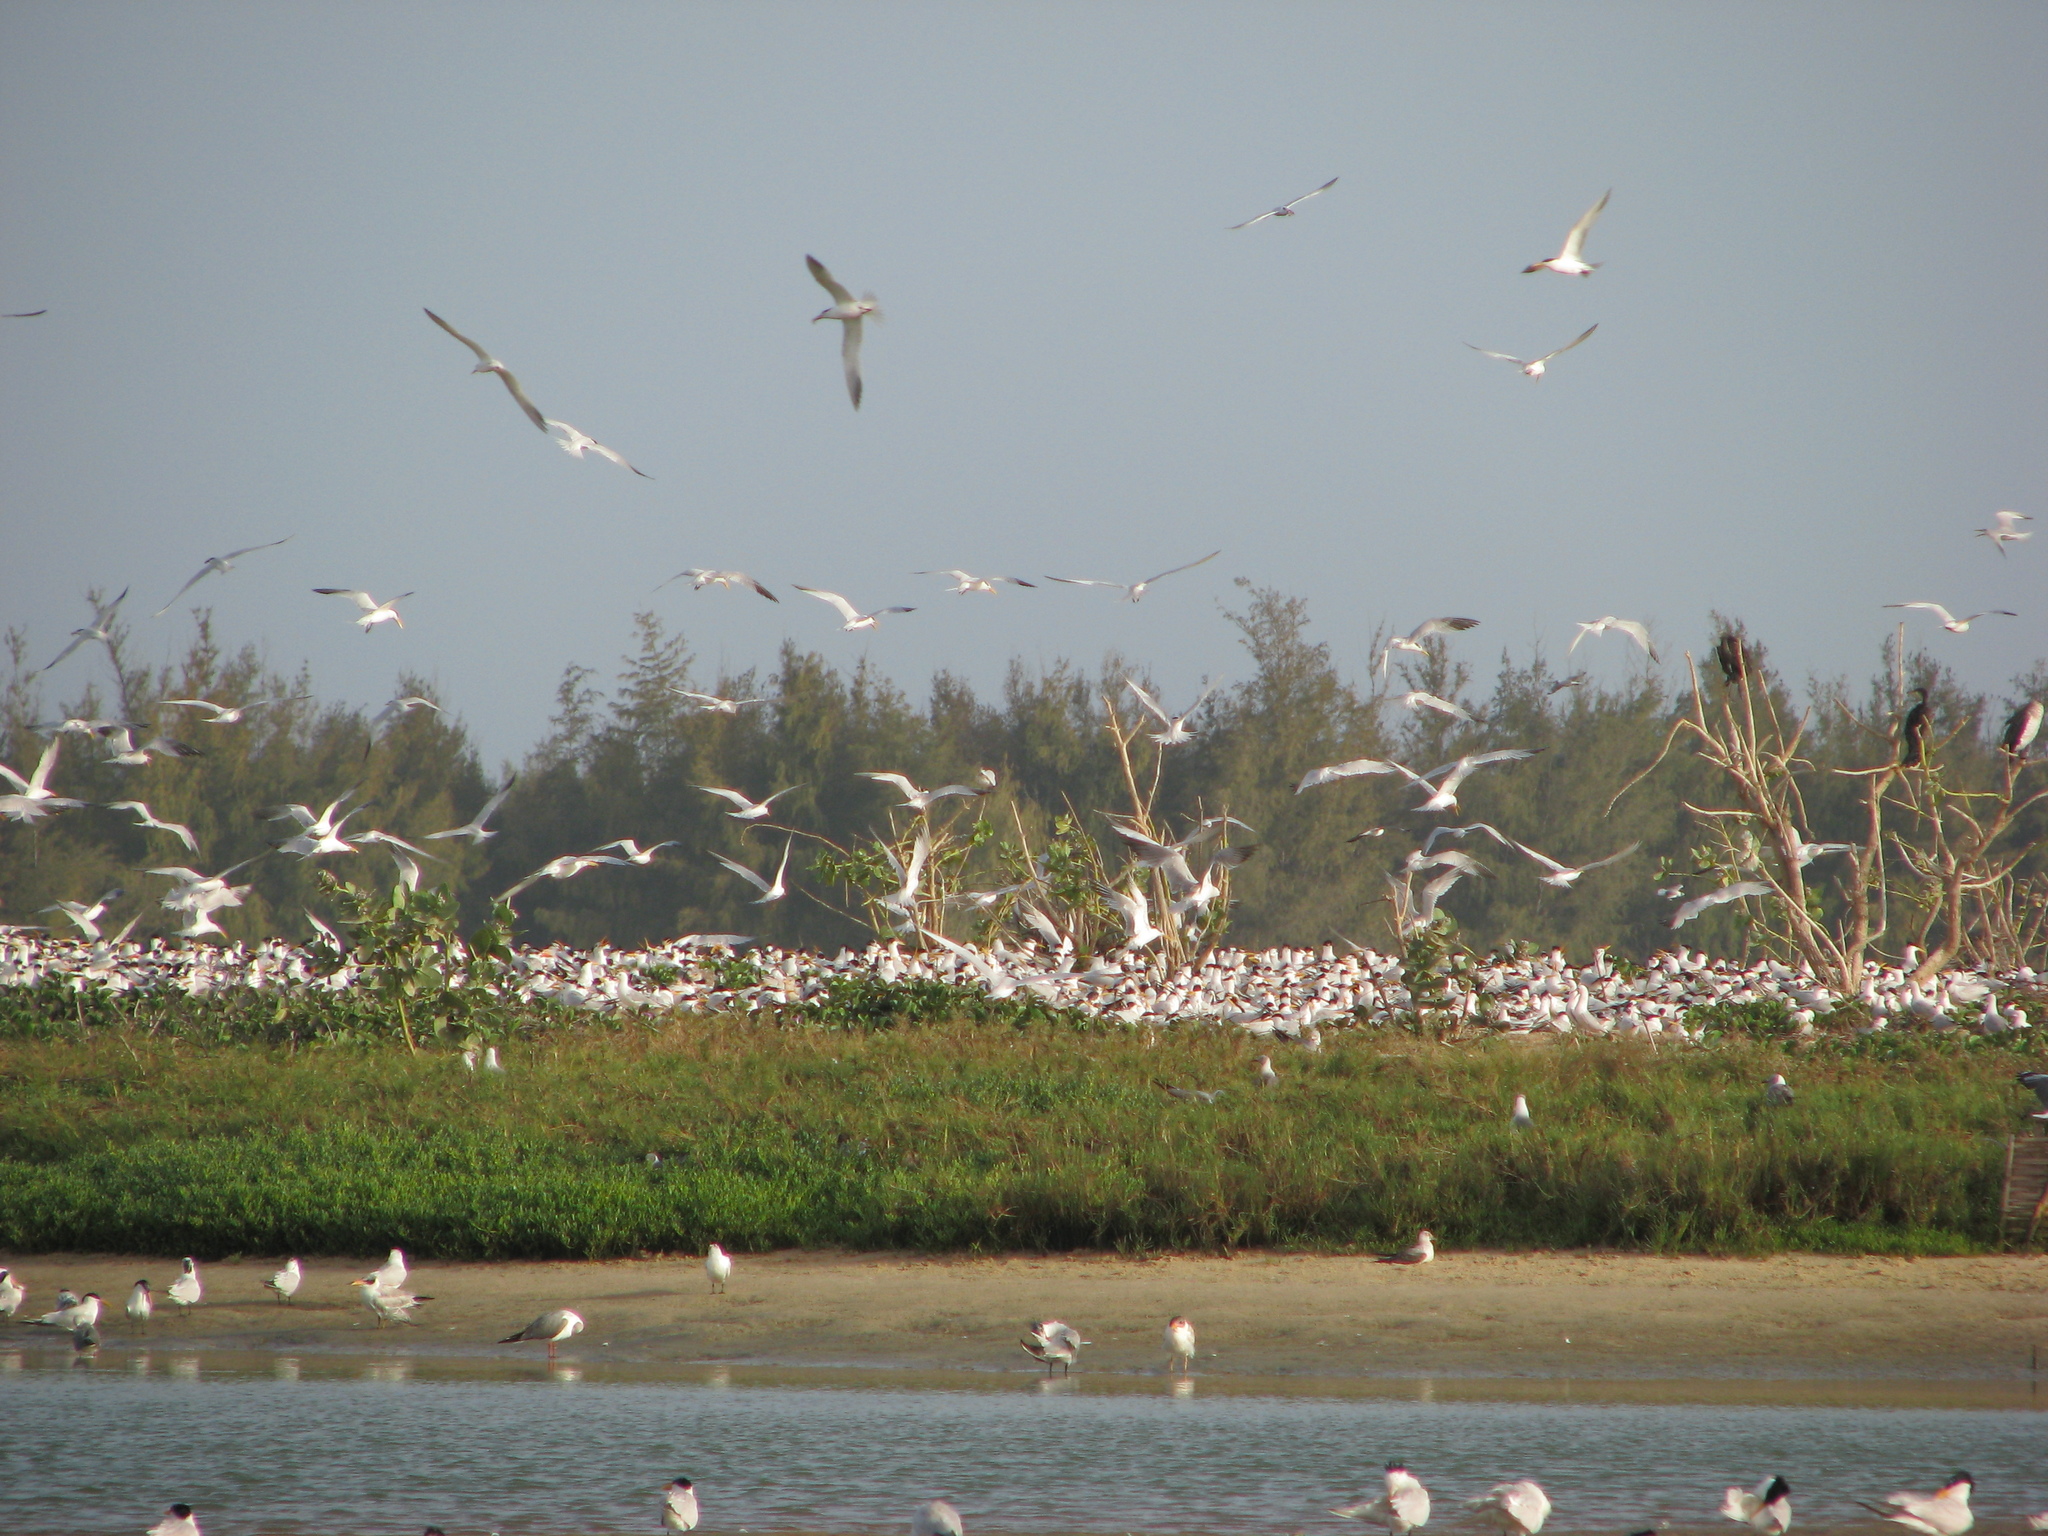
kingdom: Animalia
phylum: Chordata
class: Aves
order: Charadriiformes
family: Laridae
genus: Thalasseus
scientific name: Thalasseus albididorsalis
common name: West african crested tern
